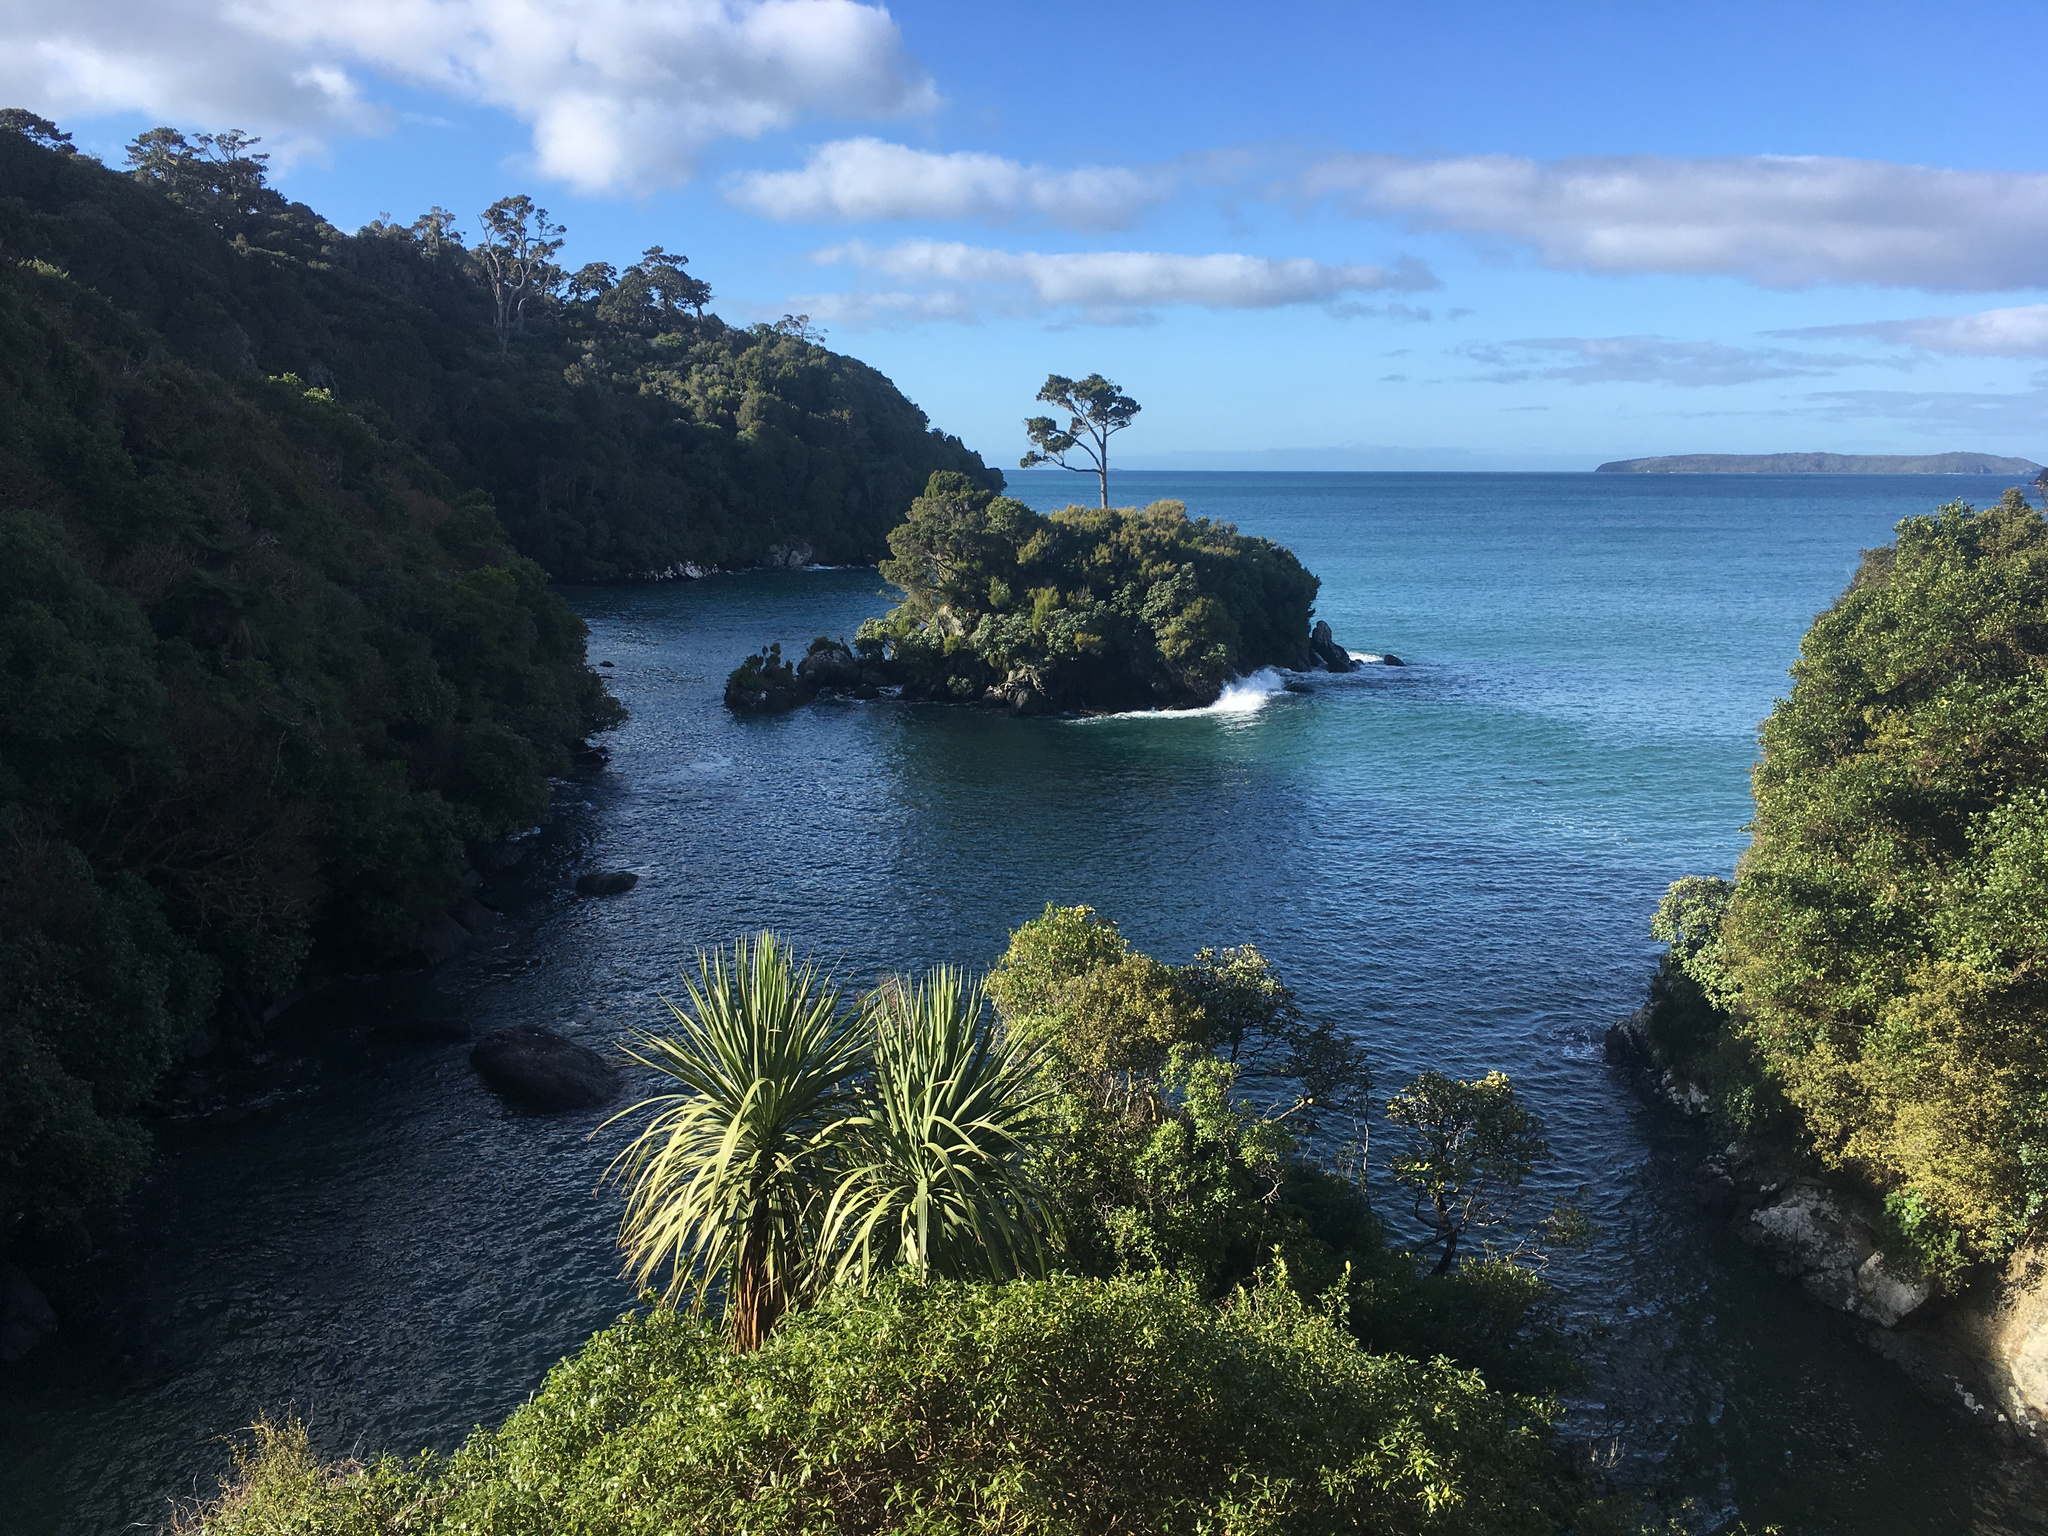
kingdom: Plantae
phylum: Tracheophyta
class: Liliopsida
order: Asparagales
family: Asparagaceae
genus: Cordyline
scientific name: Cordyline australis
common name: Cabbage-palm
